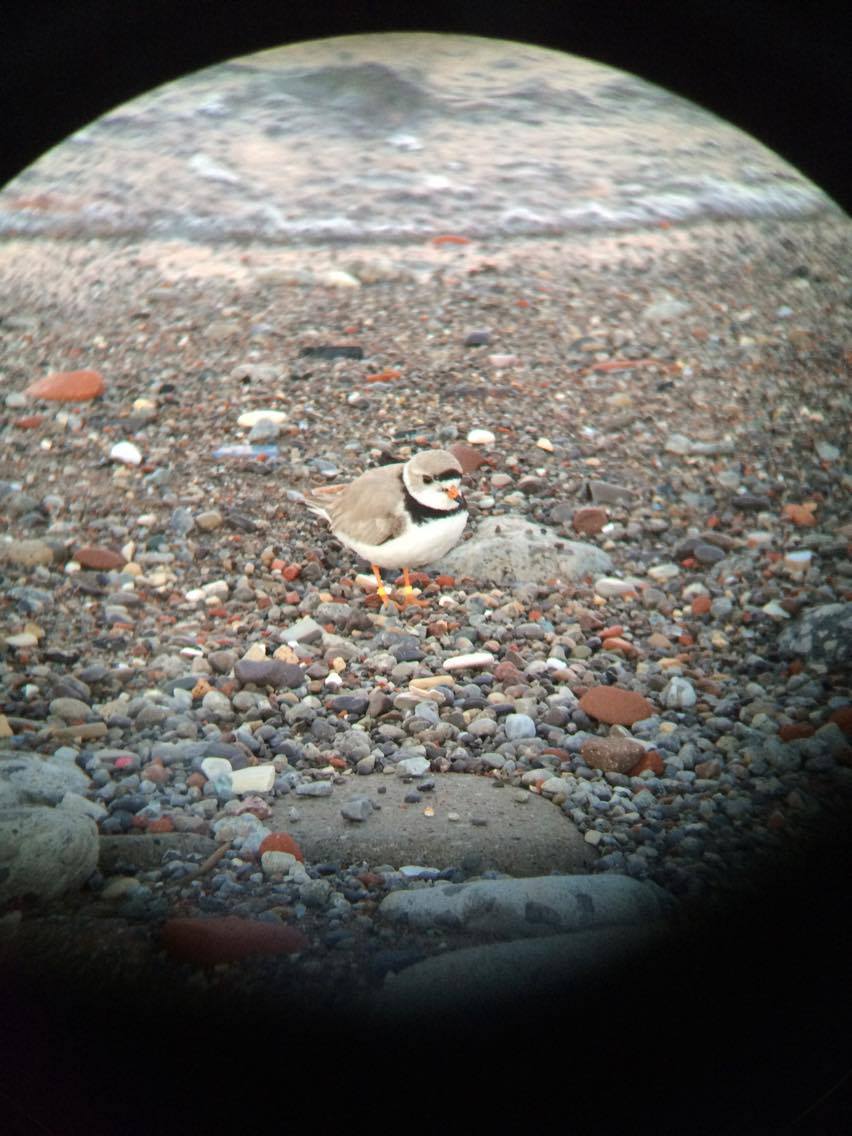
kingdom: Animalia
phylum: Chordata
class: Aves
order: Charadriiformes
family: Charadriidae
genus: Charadrius
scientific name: Charadrius melodus
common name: Piping plover
